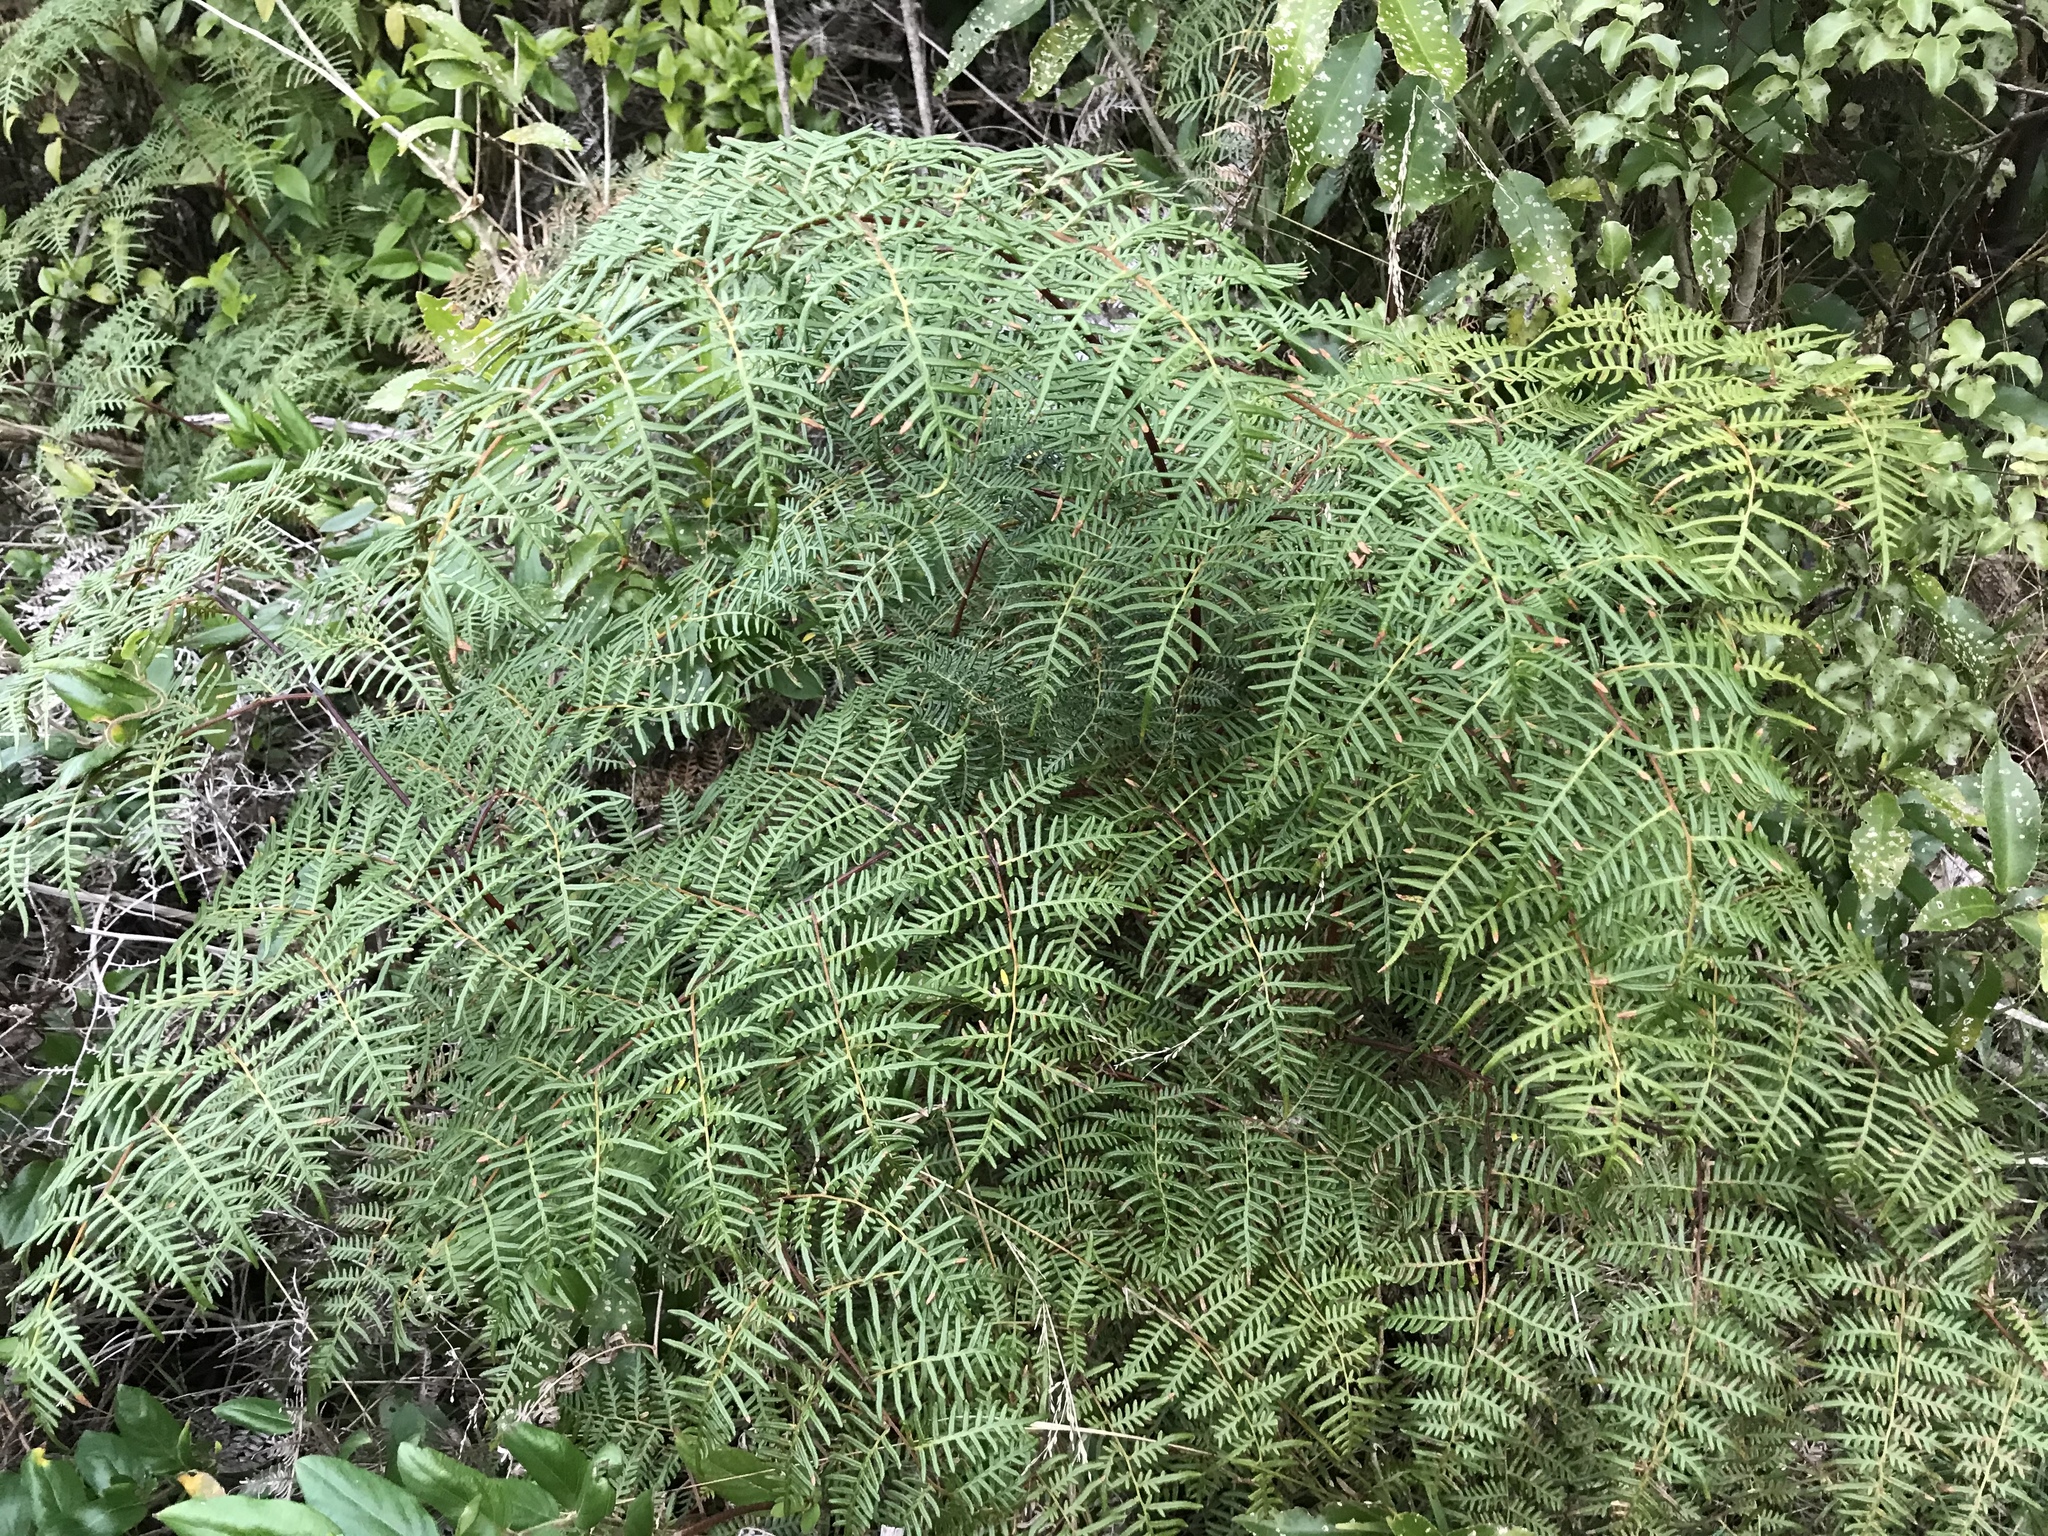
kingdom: Plantae
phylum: Tracheophyta
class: Polypodiopsida
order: Polypodiales
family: Dennstaedtiaceae
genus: Pteridium
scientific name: Pteridium esculentum
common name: Bracken fern
